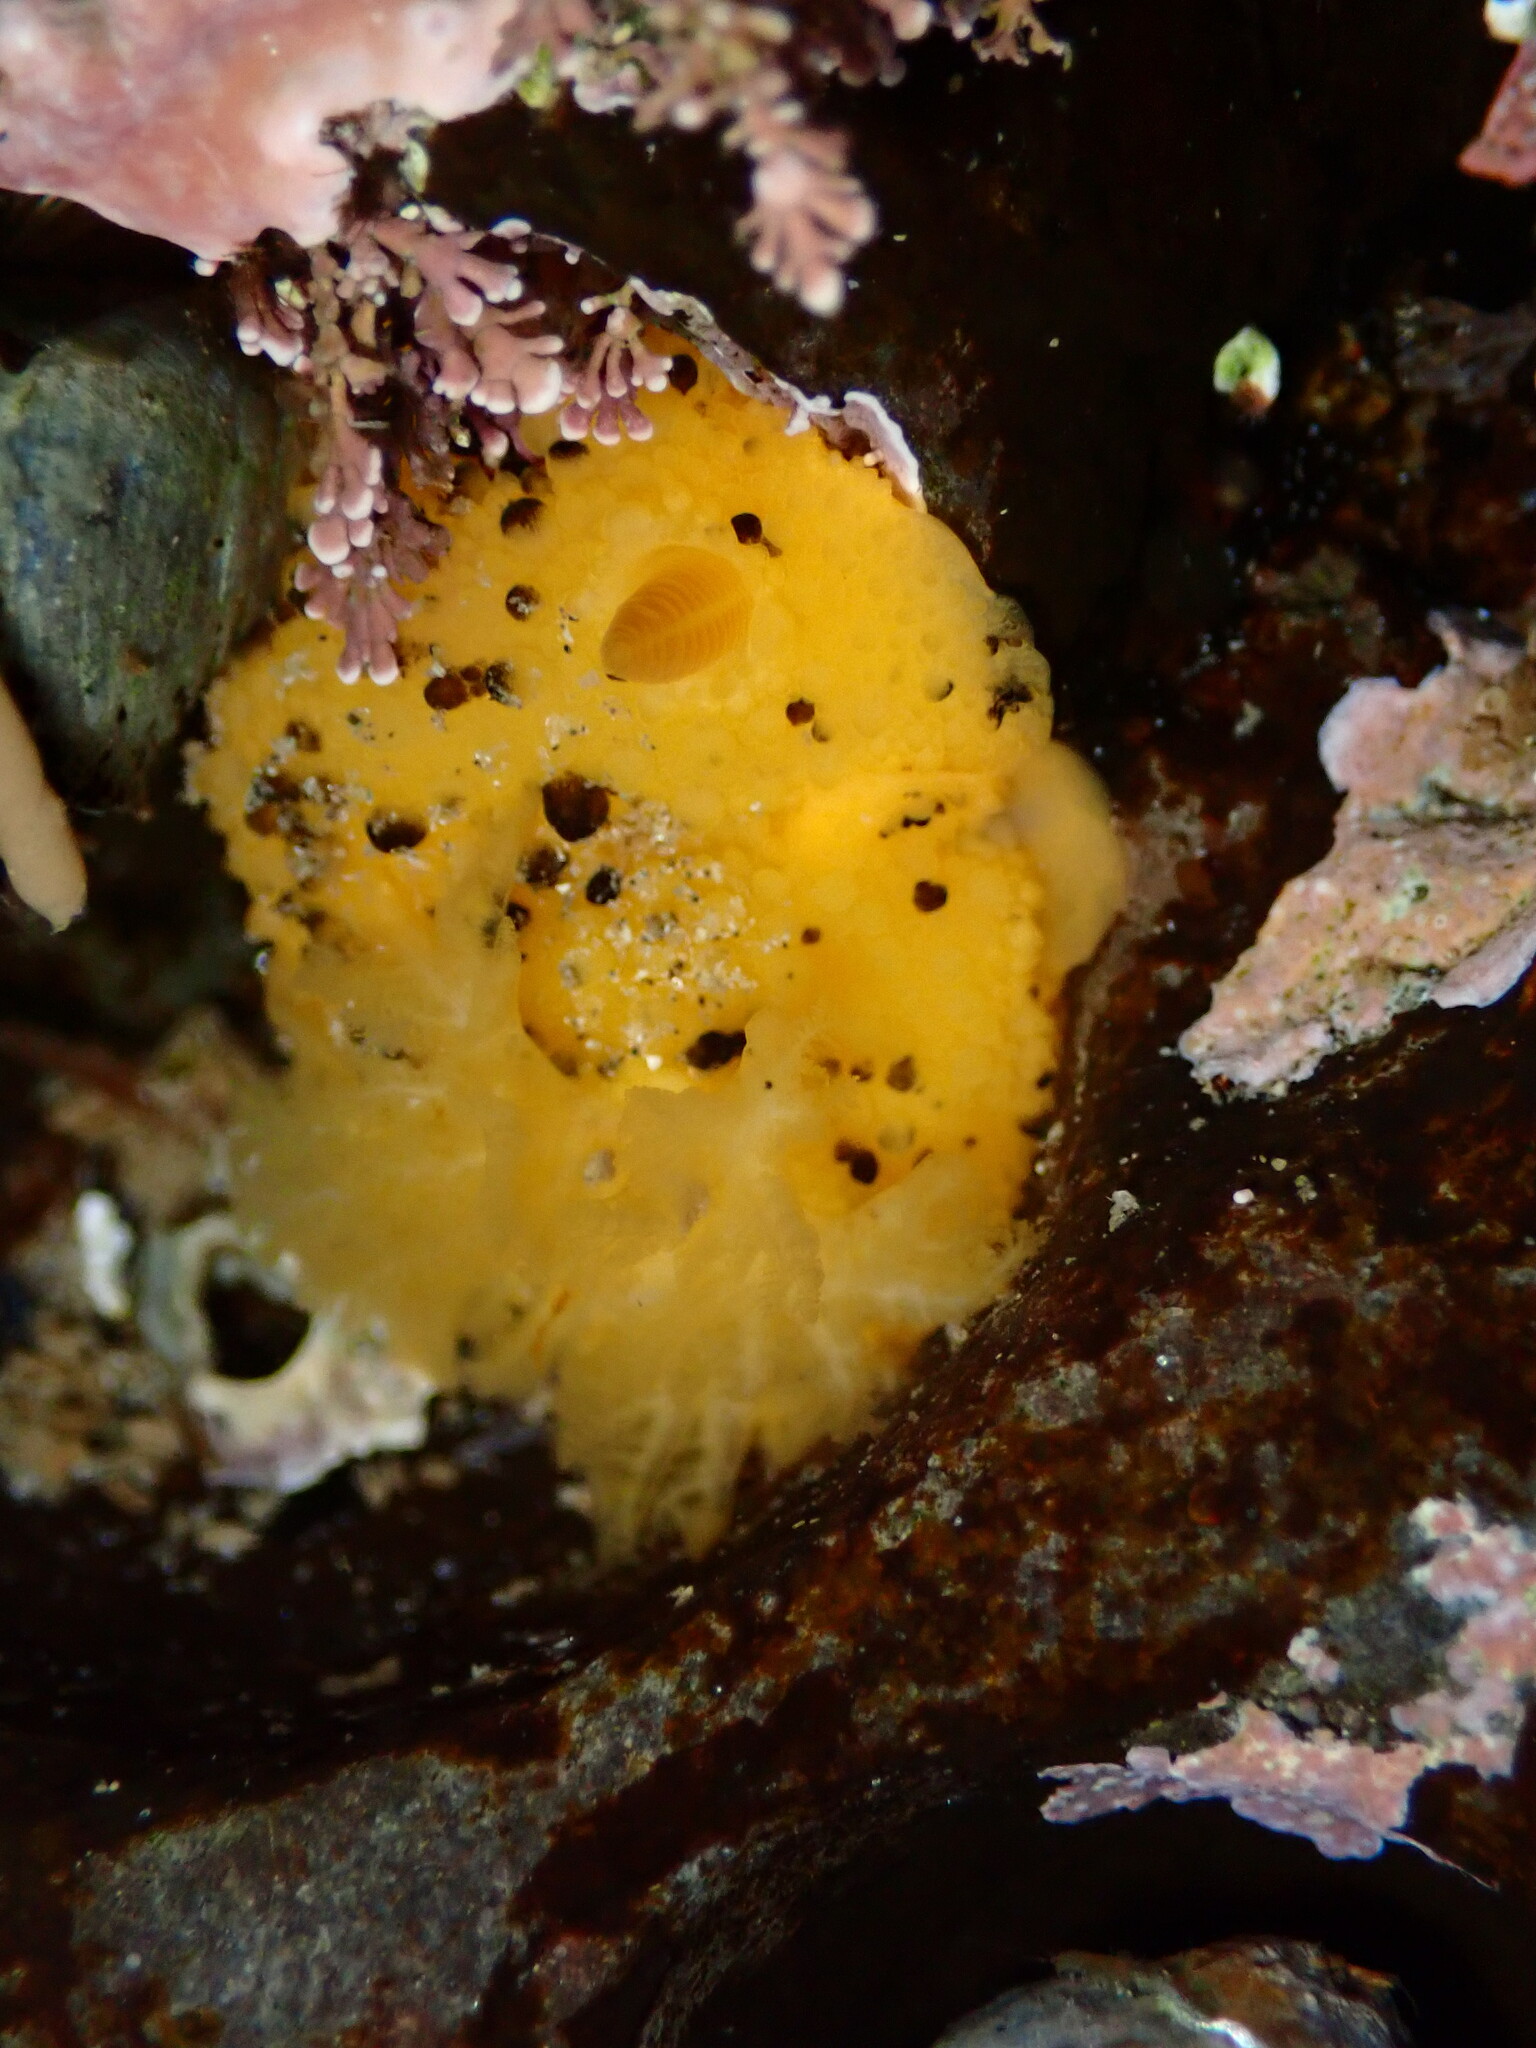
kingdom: Animalia
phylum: Mollusca
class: Gastropoda
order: Nudibranchia
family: Dorididae
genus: Doris
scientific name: Doris montereyensis
